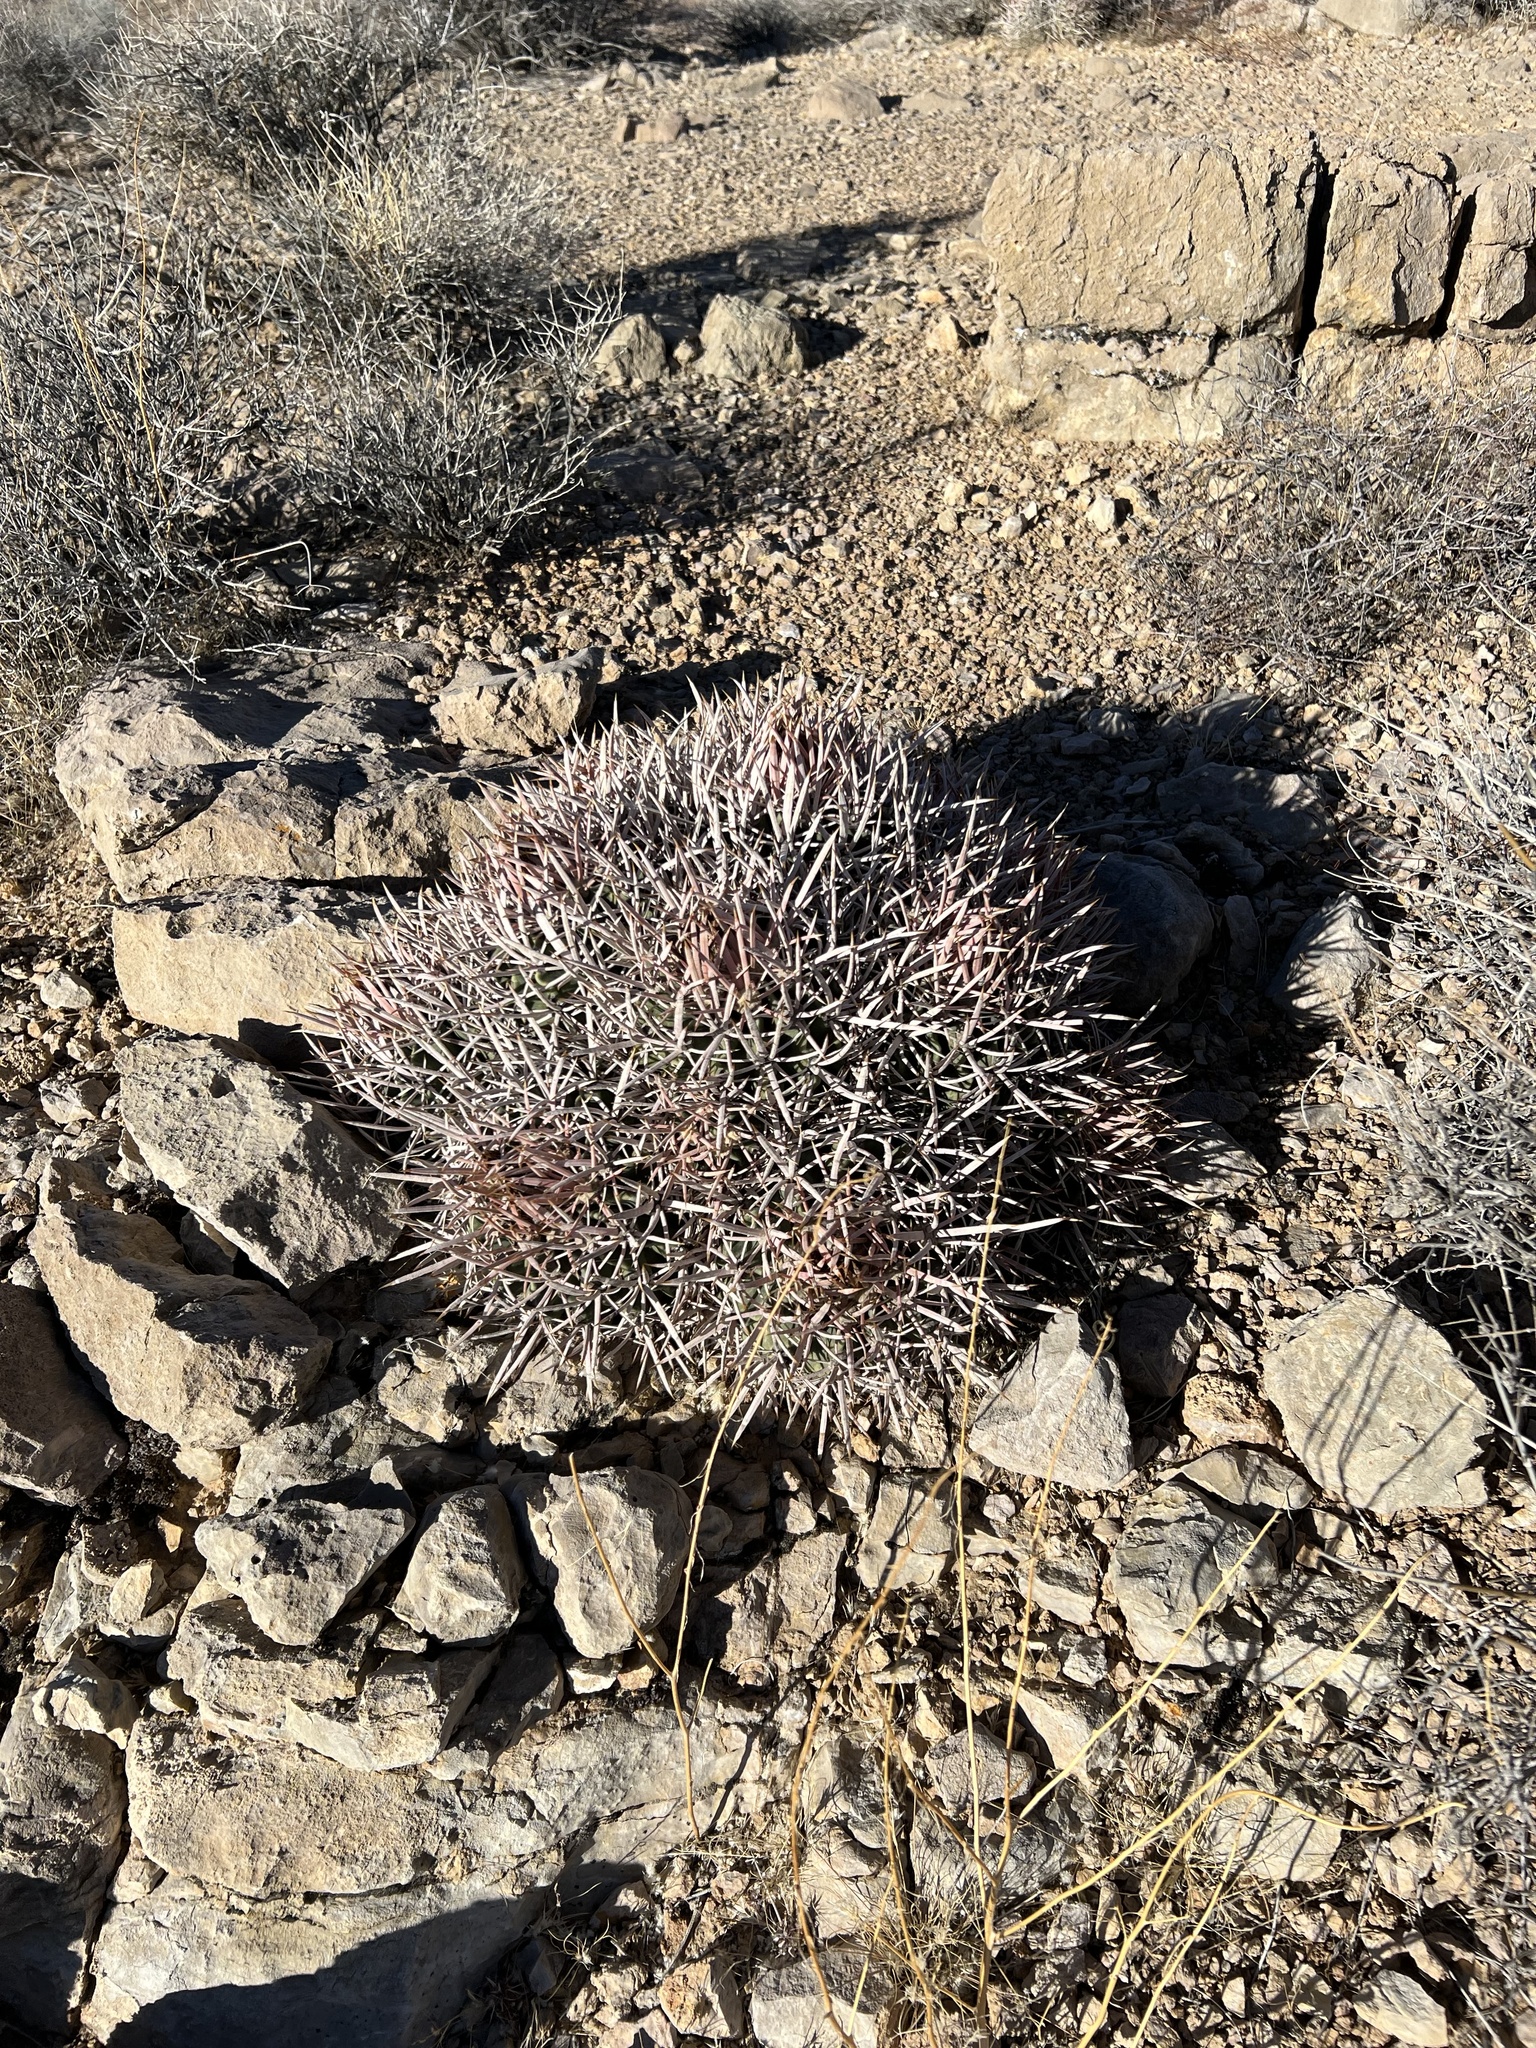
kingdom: Plantae
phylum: Tracheophyta
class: Magnoliopsida
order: Caryophyllales
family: Cactaceae
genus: Echinocactus
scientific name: Echinocactus polycephalus
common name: Cottontop cactus
